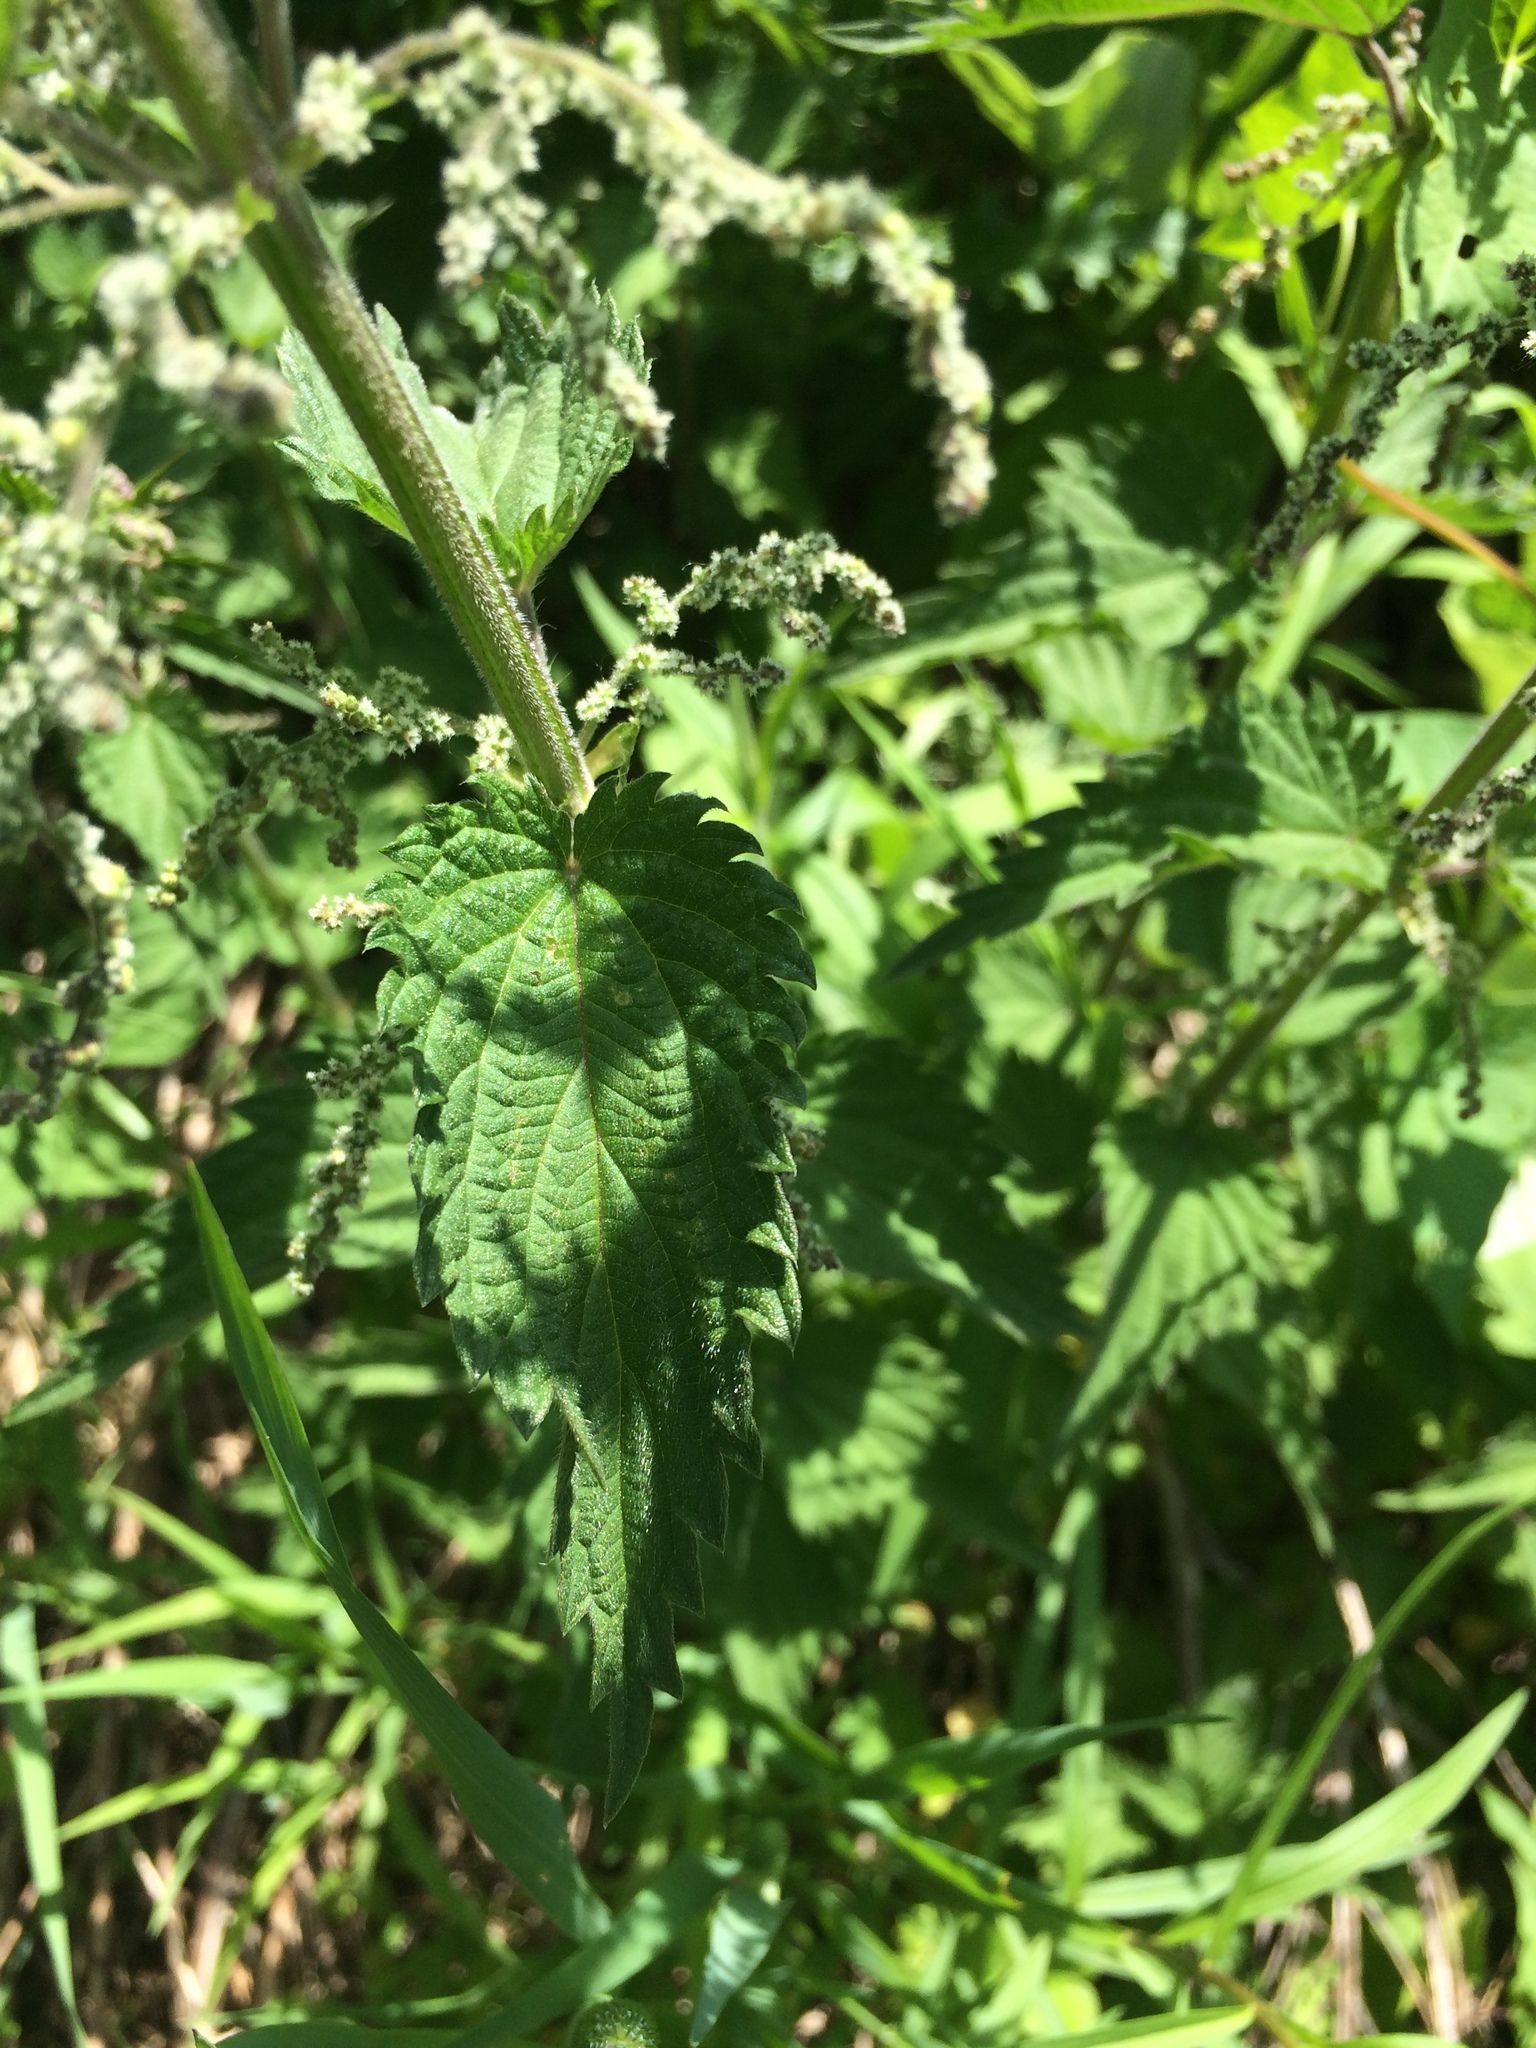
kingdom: Plantae
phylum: Tracheophyta
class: Magnoliopsida
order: Rosales
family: Urticaceae
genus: Urtica
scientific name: Urtica dioica
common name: Common nettle
